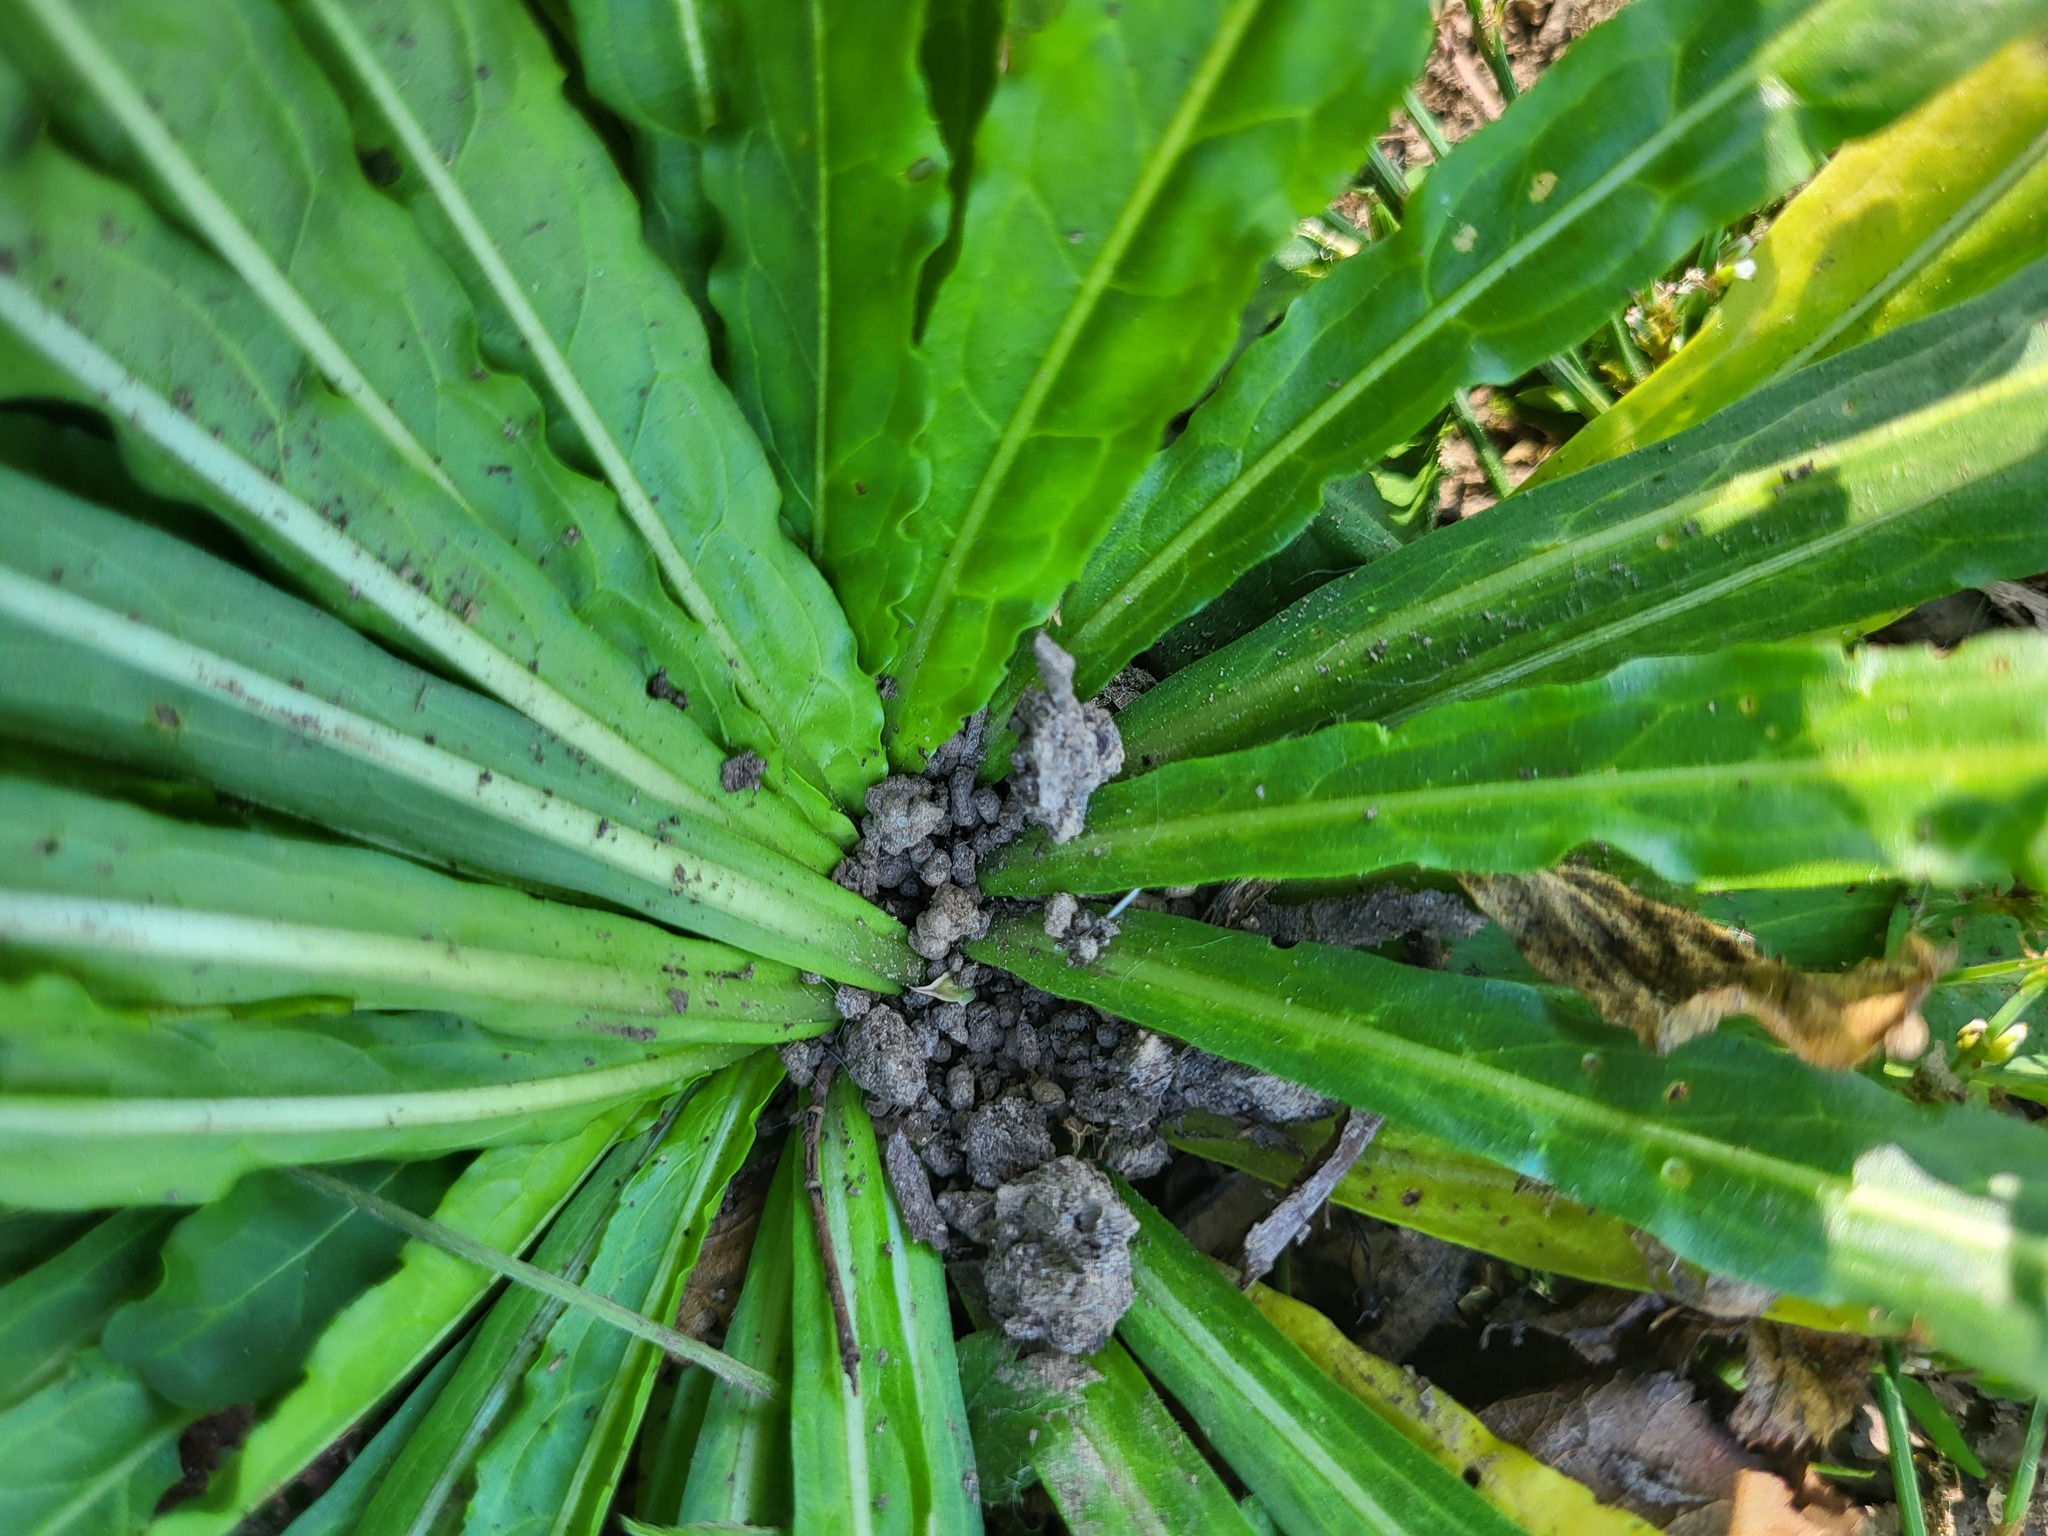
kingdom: Plantae
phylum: Tracheophyta
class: Magnoliopsida
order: Brassicales
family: Resedaceae
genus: Reseda
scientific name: Reseda luteola
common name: Weld
